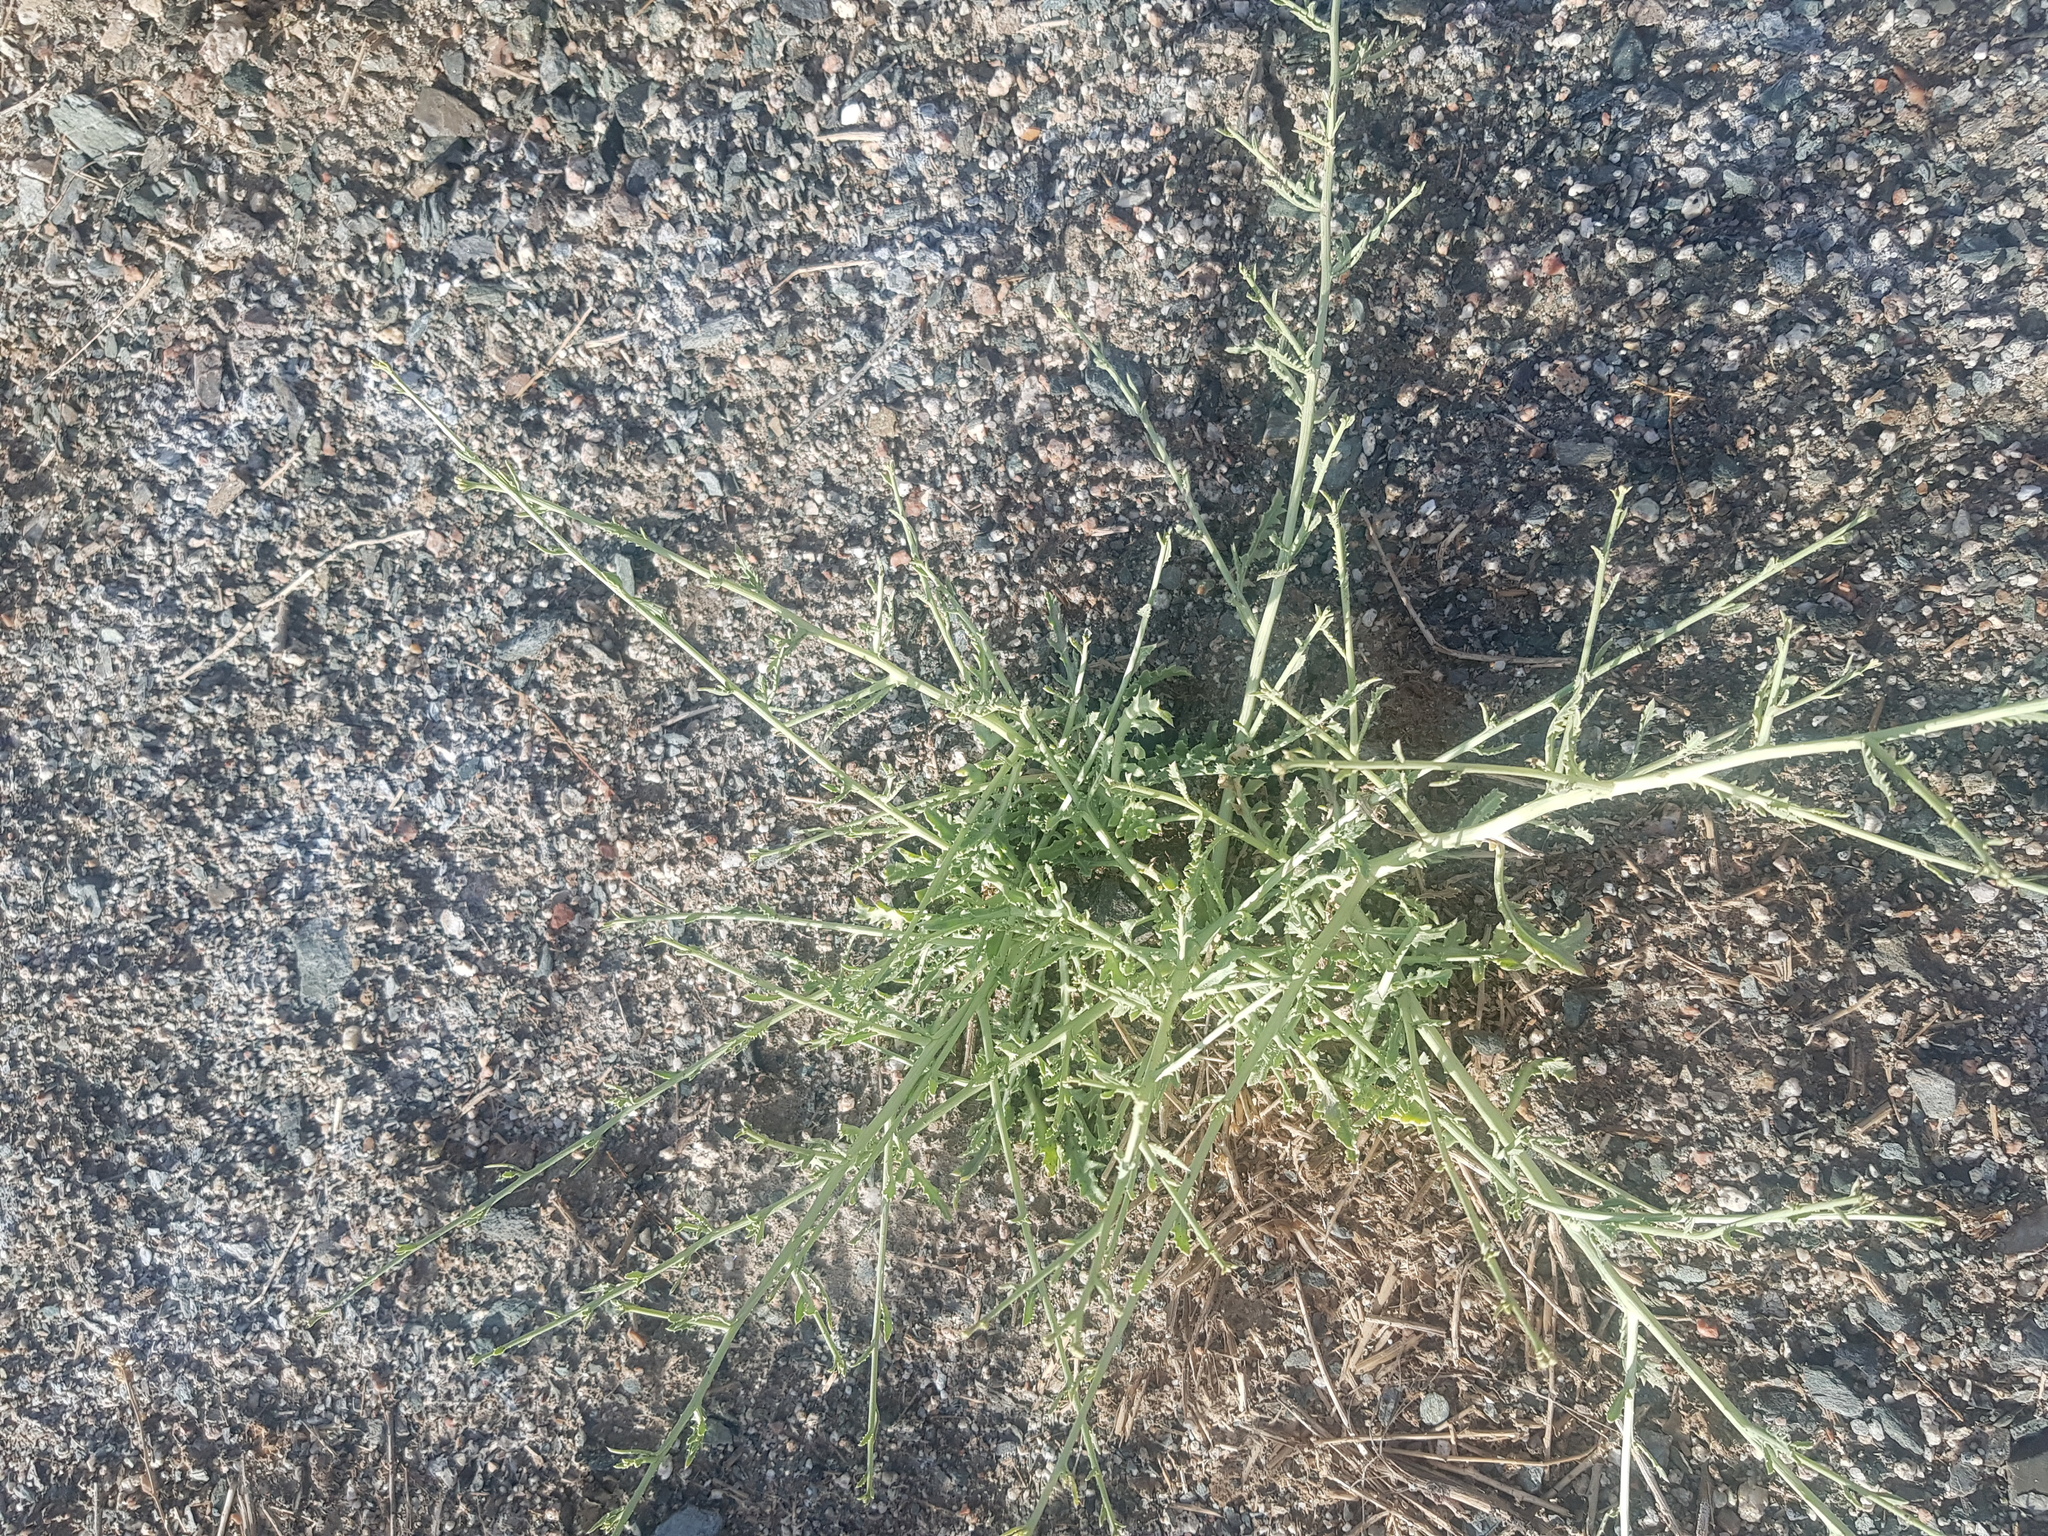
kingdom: Plantae
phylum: Tracheophyta
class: Magnoliopsida
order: Asterales
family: Asteraceae
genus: Lactuca
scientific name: Lactuca tatarica
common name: Blue lettuce
